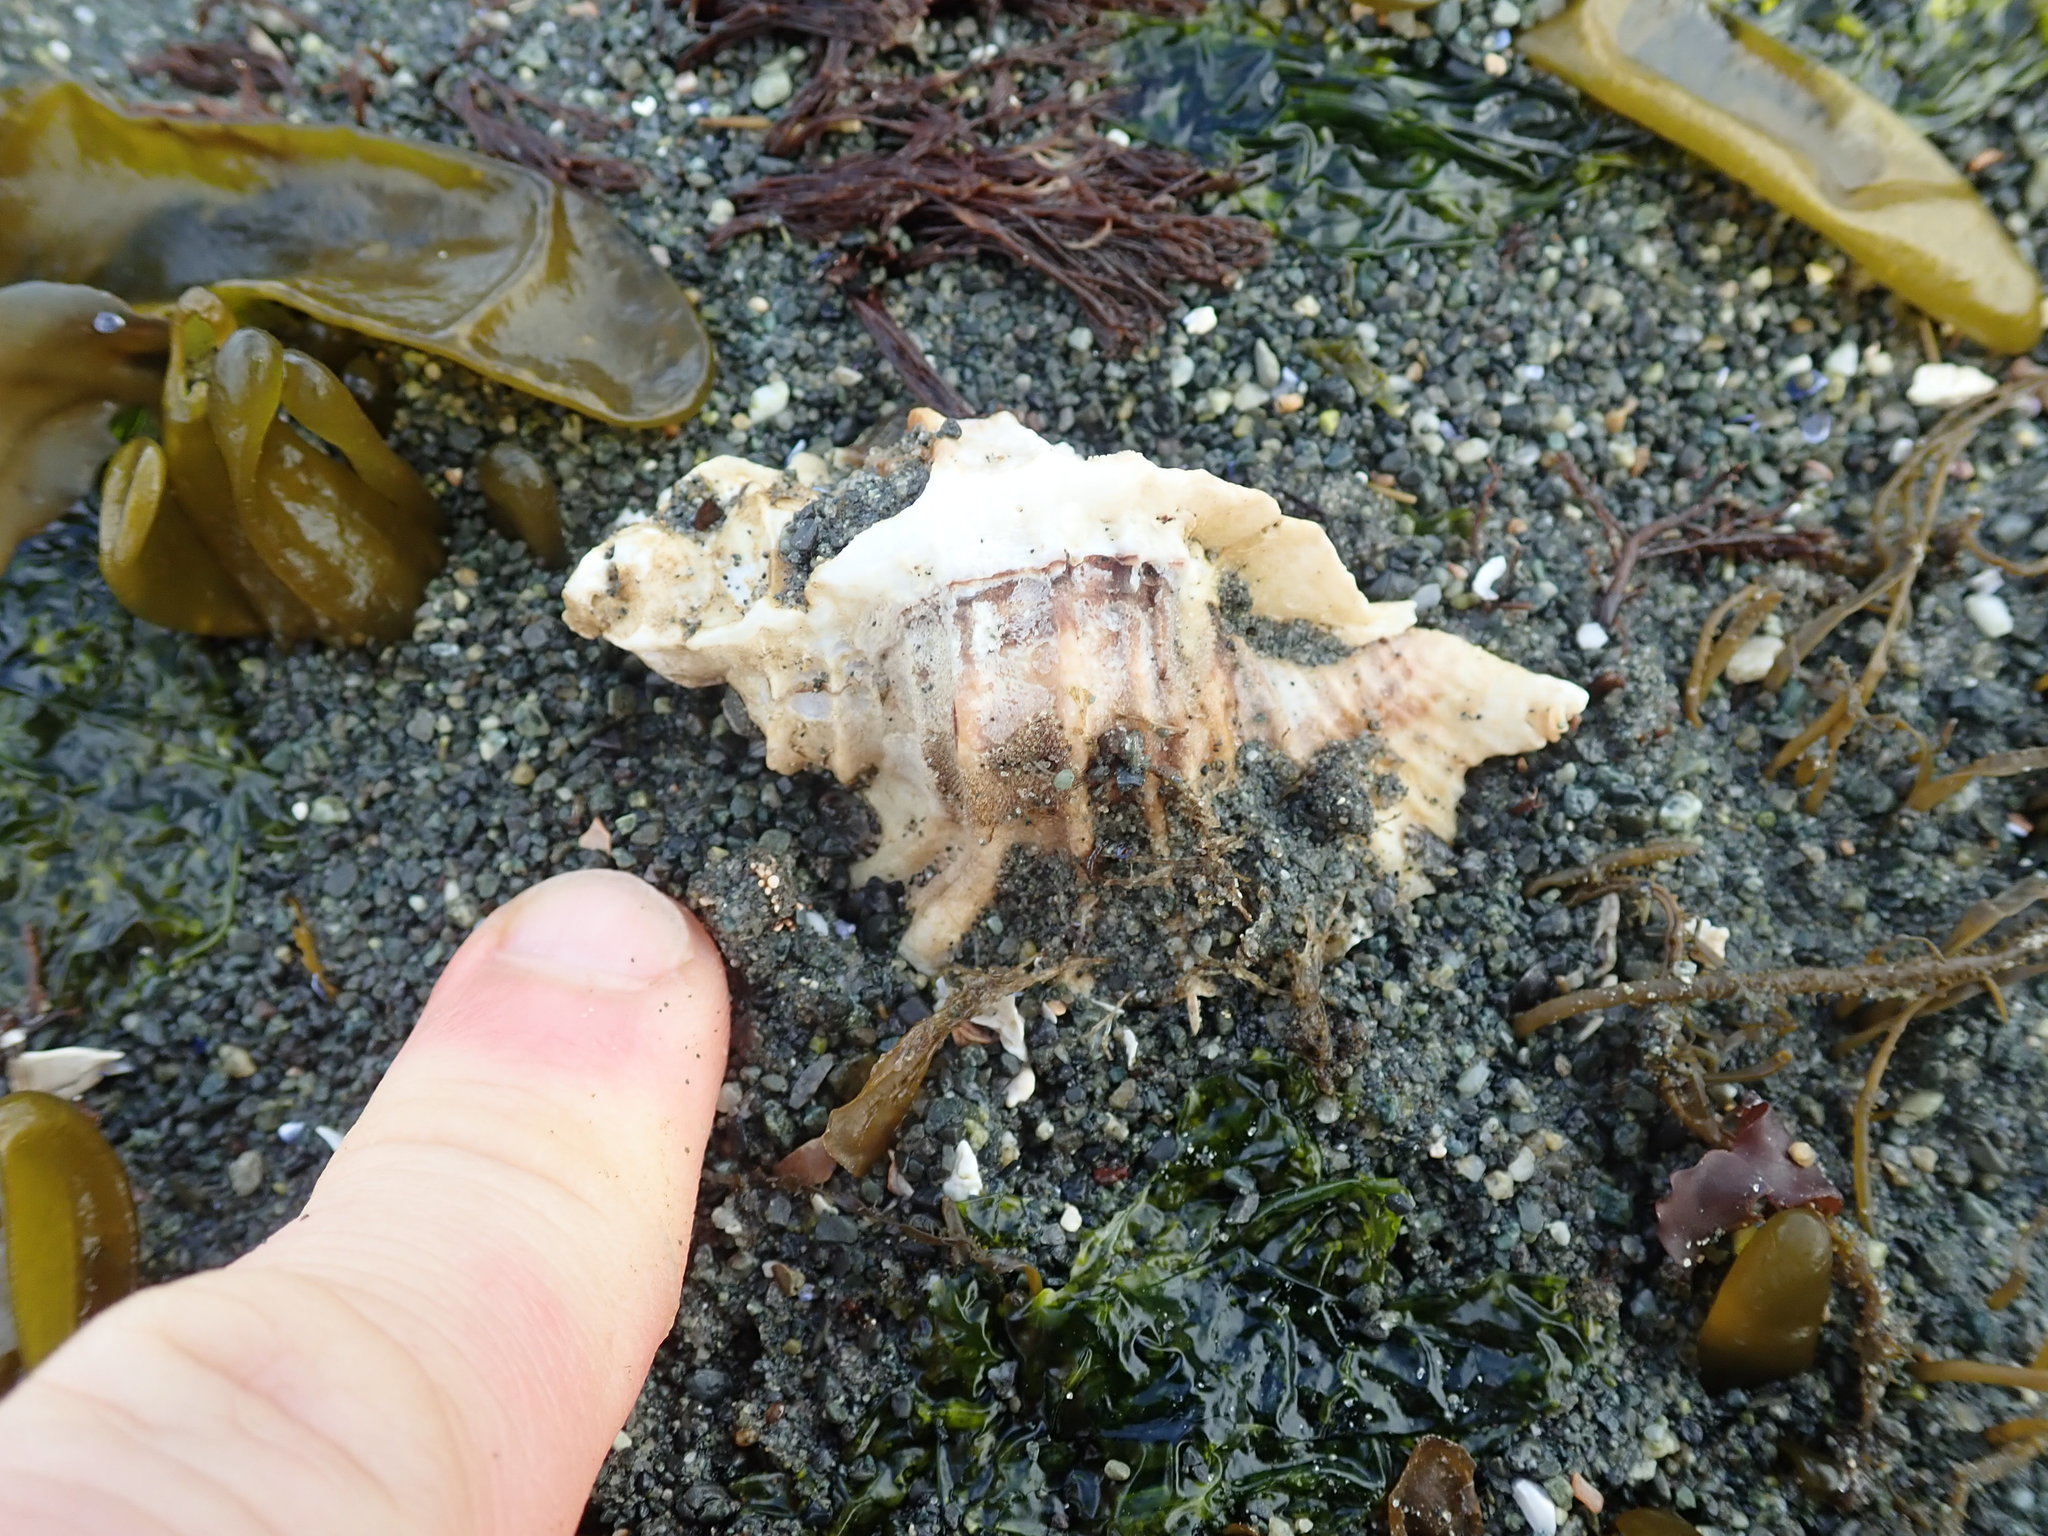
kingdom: Animalia
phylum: Mollusca
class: Gastropoda
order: Neogastropoda
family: Muricidae
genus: Ceratostoma
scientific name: Ceratostoma foliatum
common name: Foliate thorn purpura
